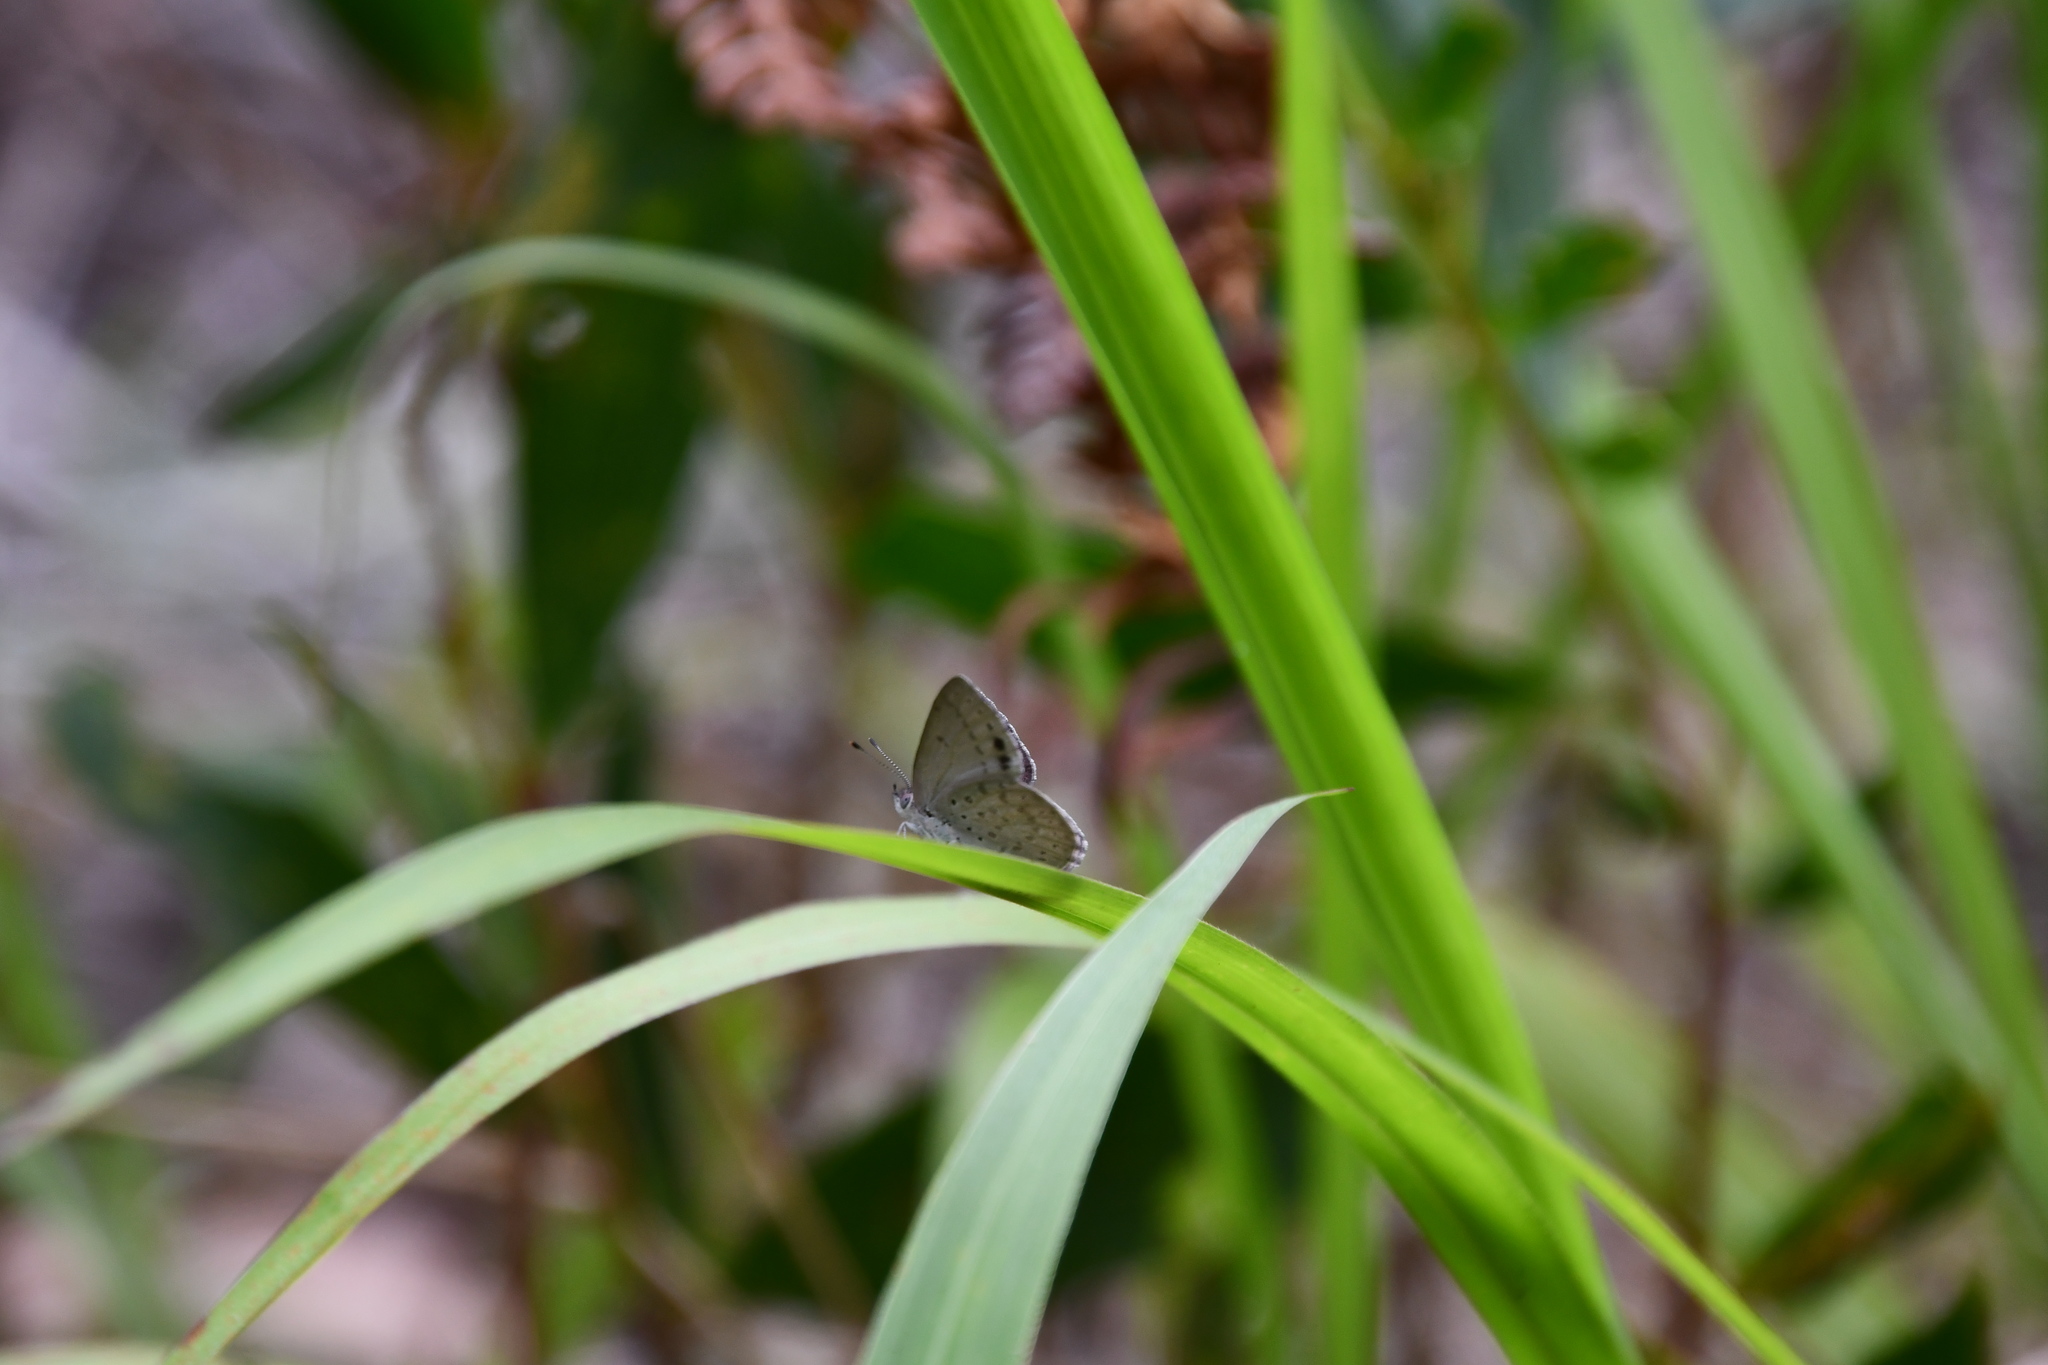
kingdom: Animalia
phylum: Arthropoda
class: Insecta
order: Lepidoptera
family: Lycaenidae
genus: Candalides
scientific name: Candalides
